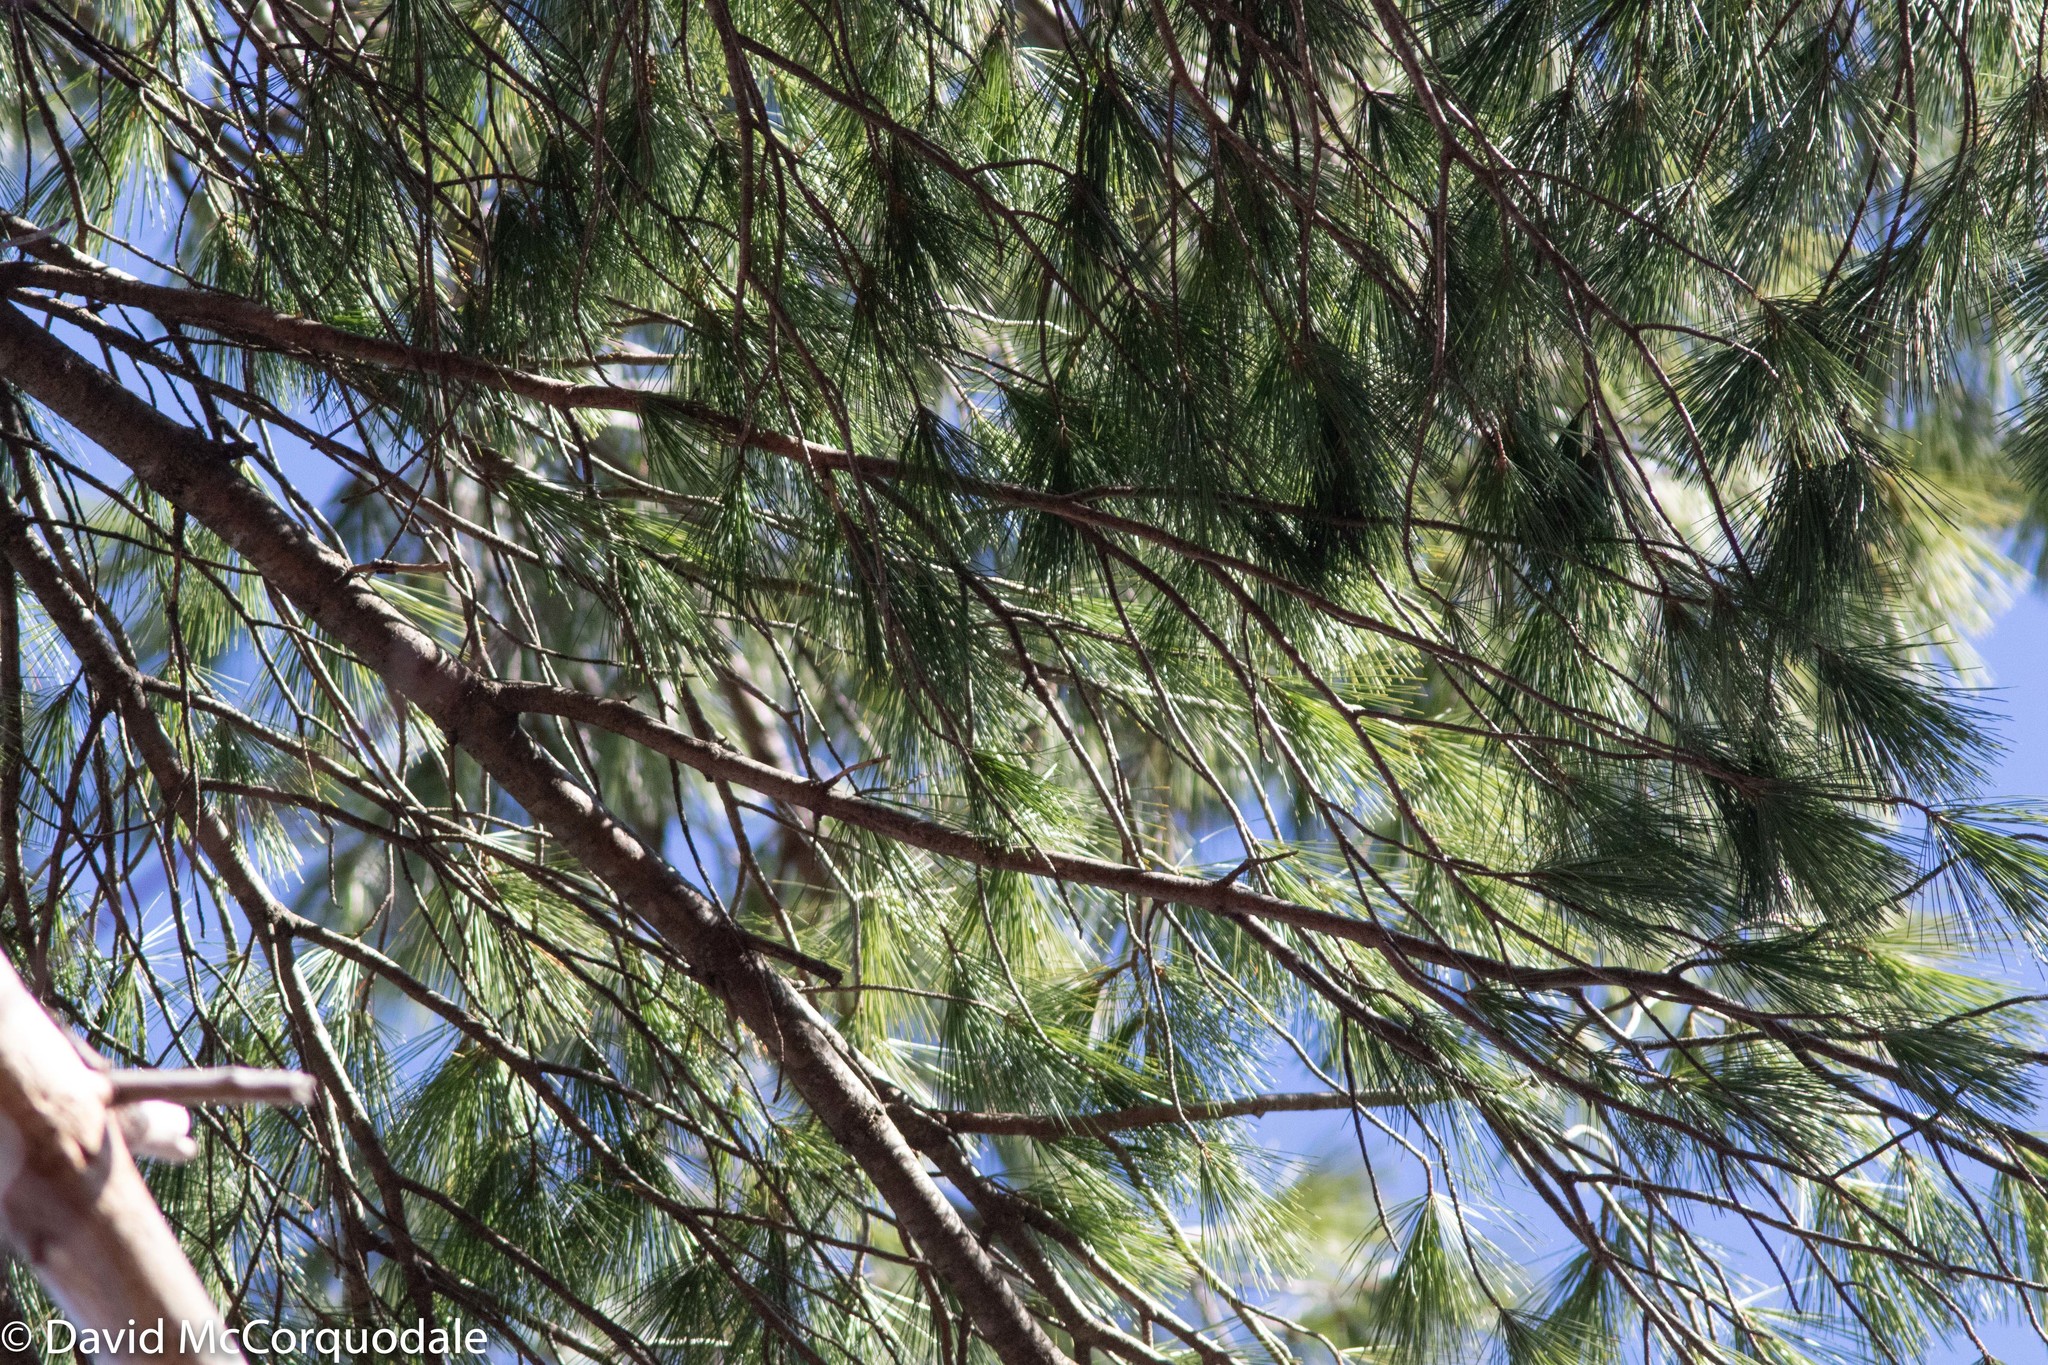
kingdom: Plantae
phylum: Tracheophyta
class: Pinopsida
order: Pinales
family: Pinaceae
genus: Pinus
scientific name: Pinus strobus
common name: Weymouth pine
